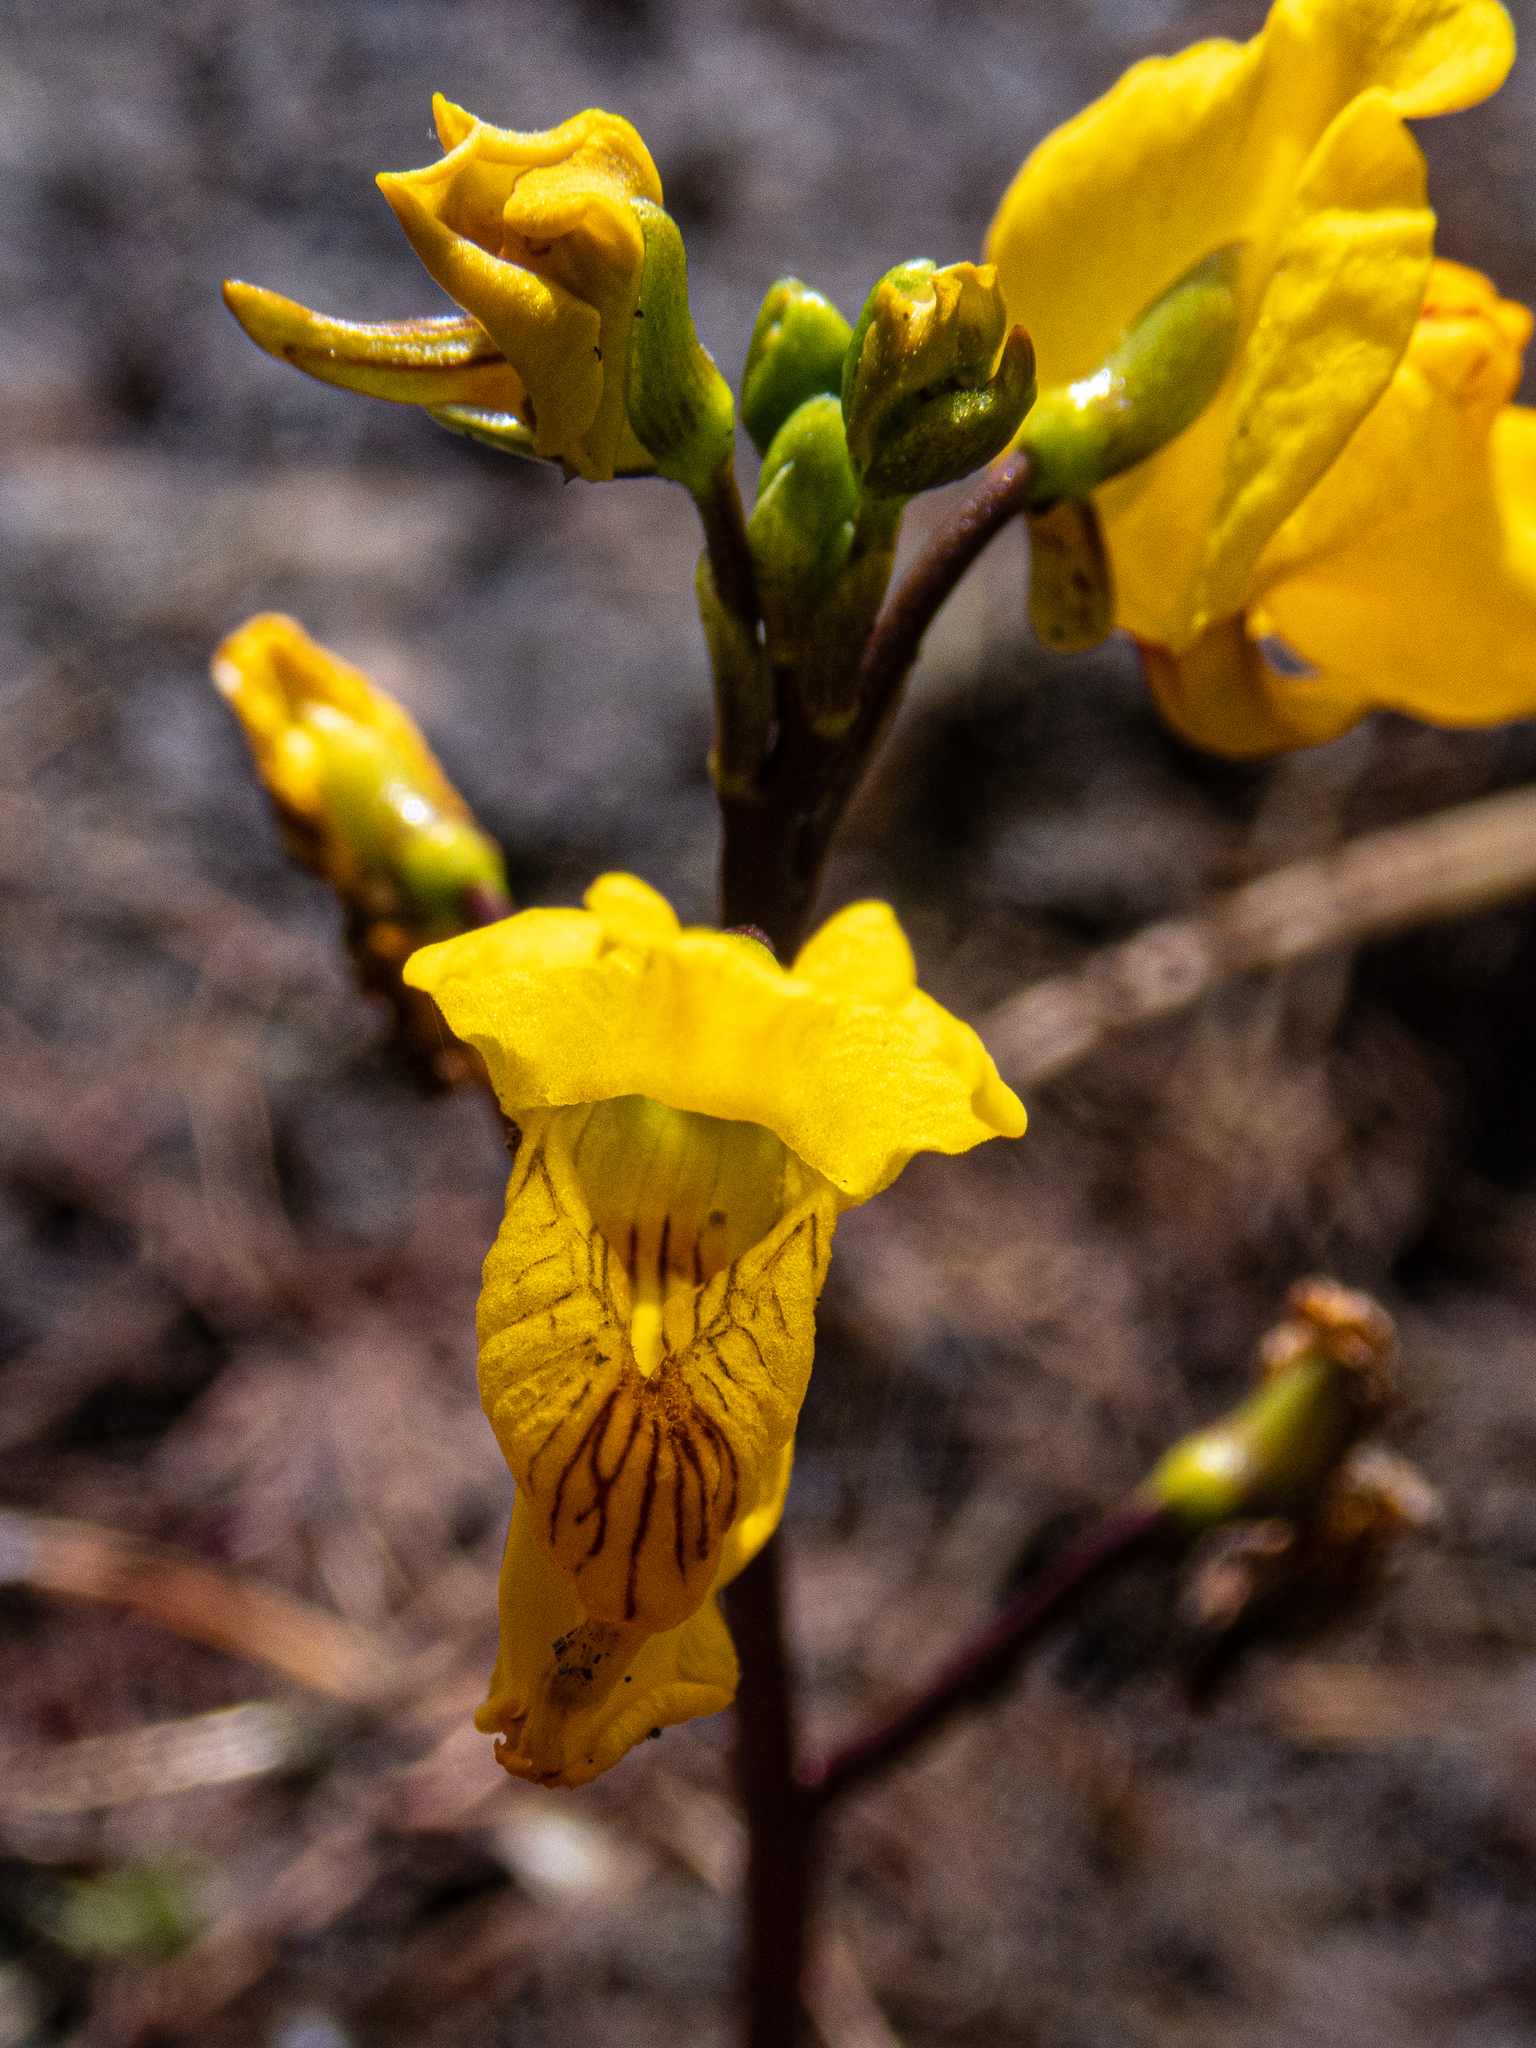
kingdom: Plantae
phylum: Tracheophyta
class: Magnoliopsida
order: Lamiales
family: Lentibulariaceae
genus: Utricularia
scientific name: Utricularia macrorhiza
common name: Common bladderwort
